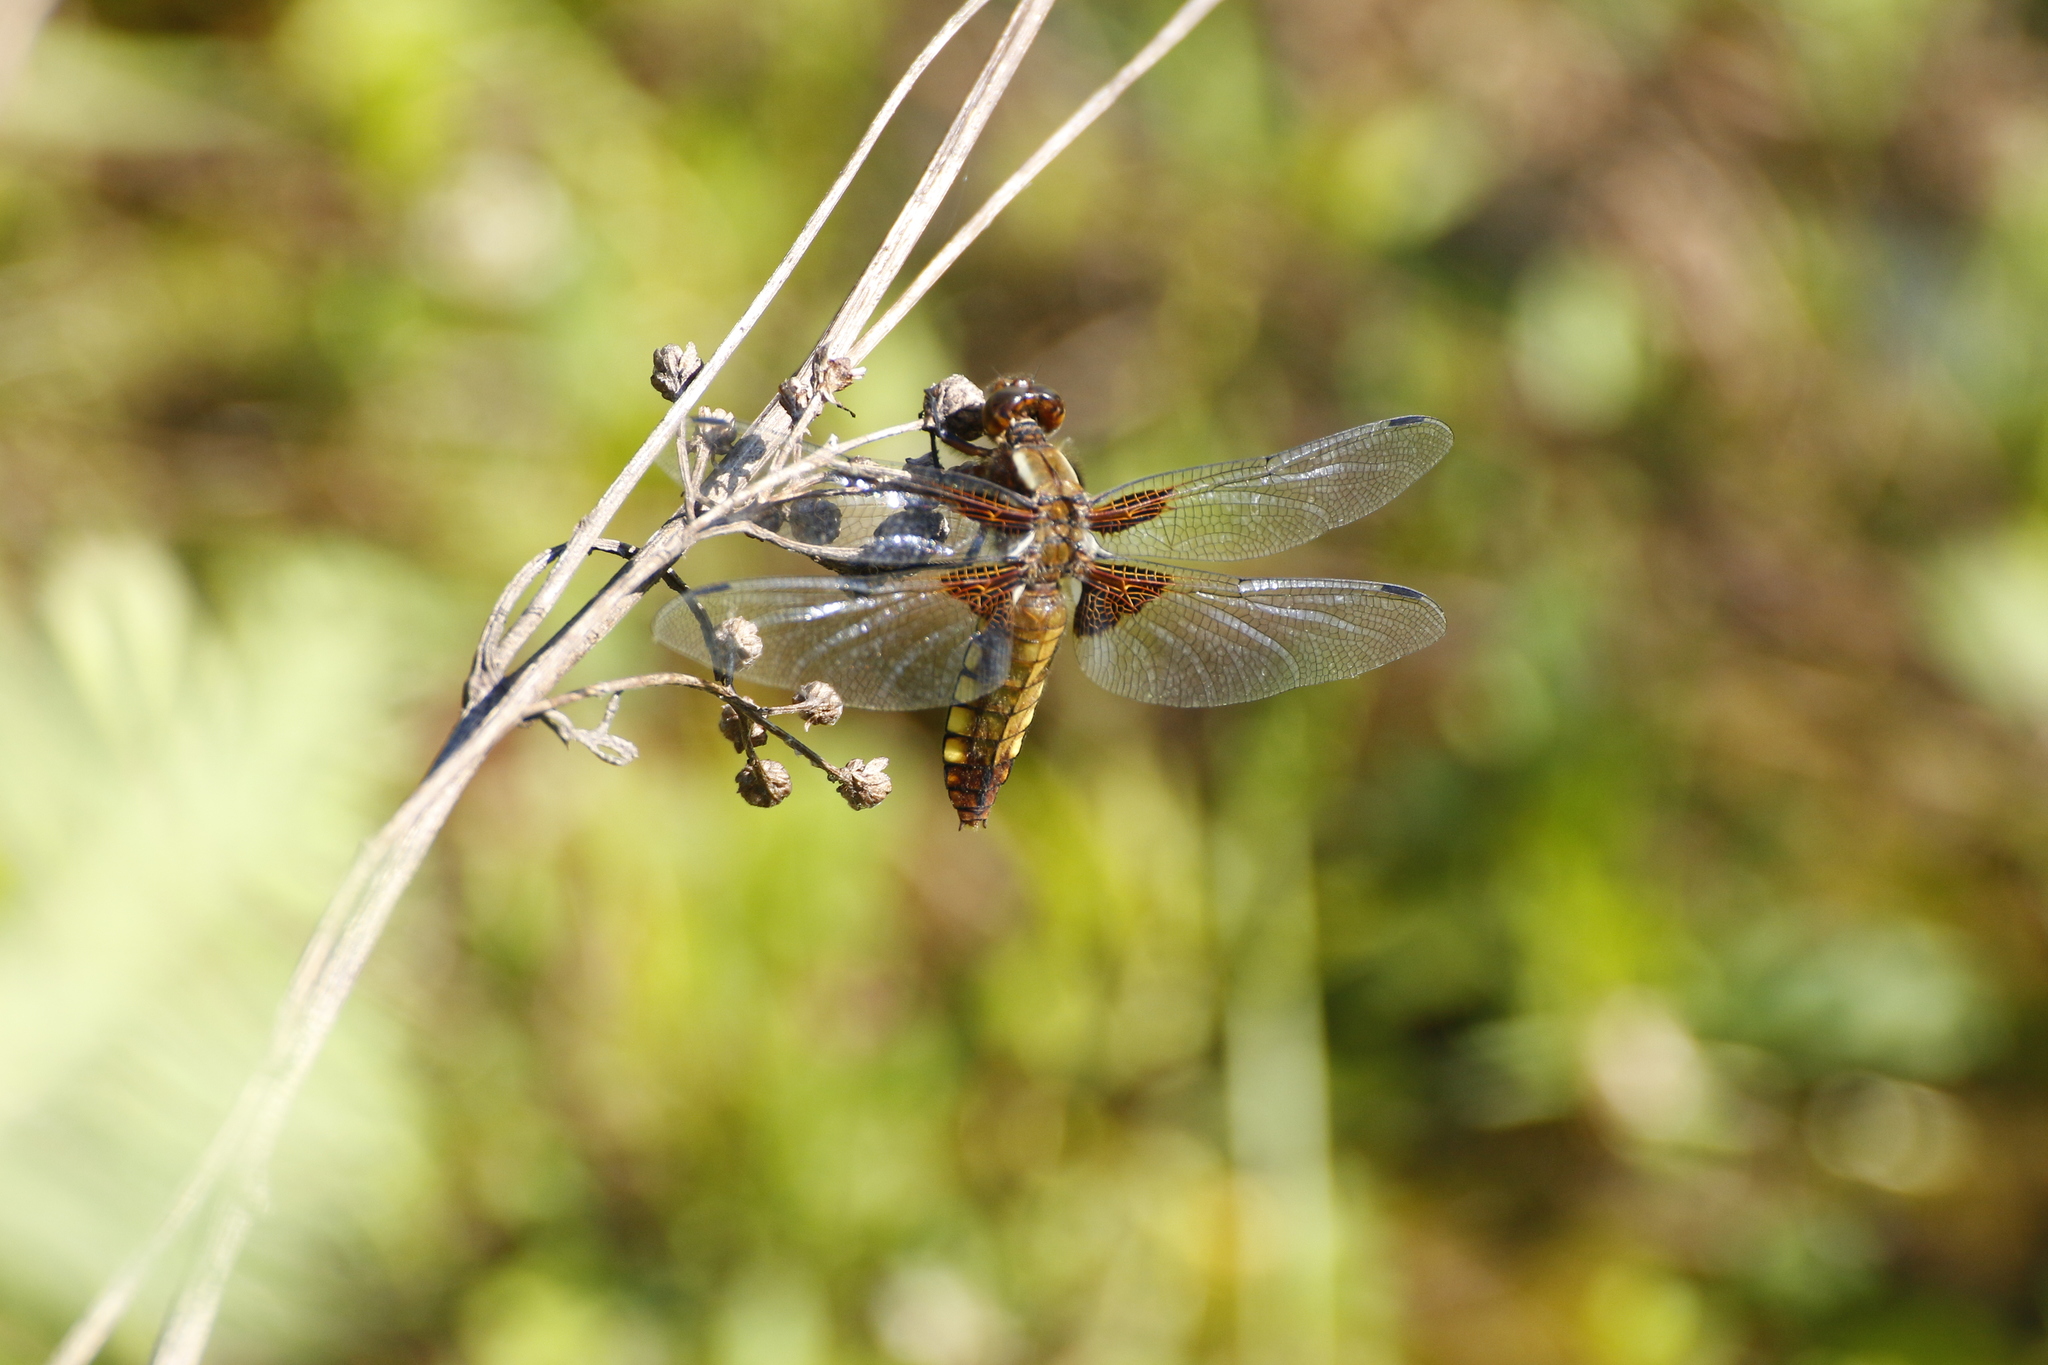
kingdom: Animalia
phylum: Arthropoda
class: Insecta
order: Odonata
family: Libellulidae
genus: Libellula
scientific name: Libellula depressa
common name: Broad-bodied chaser
